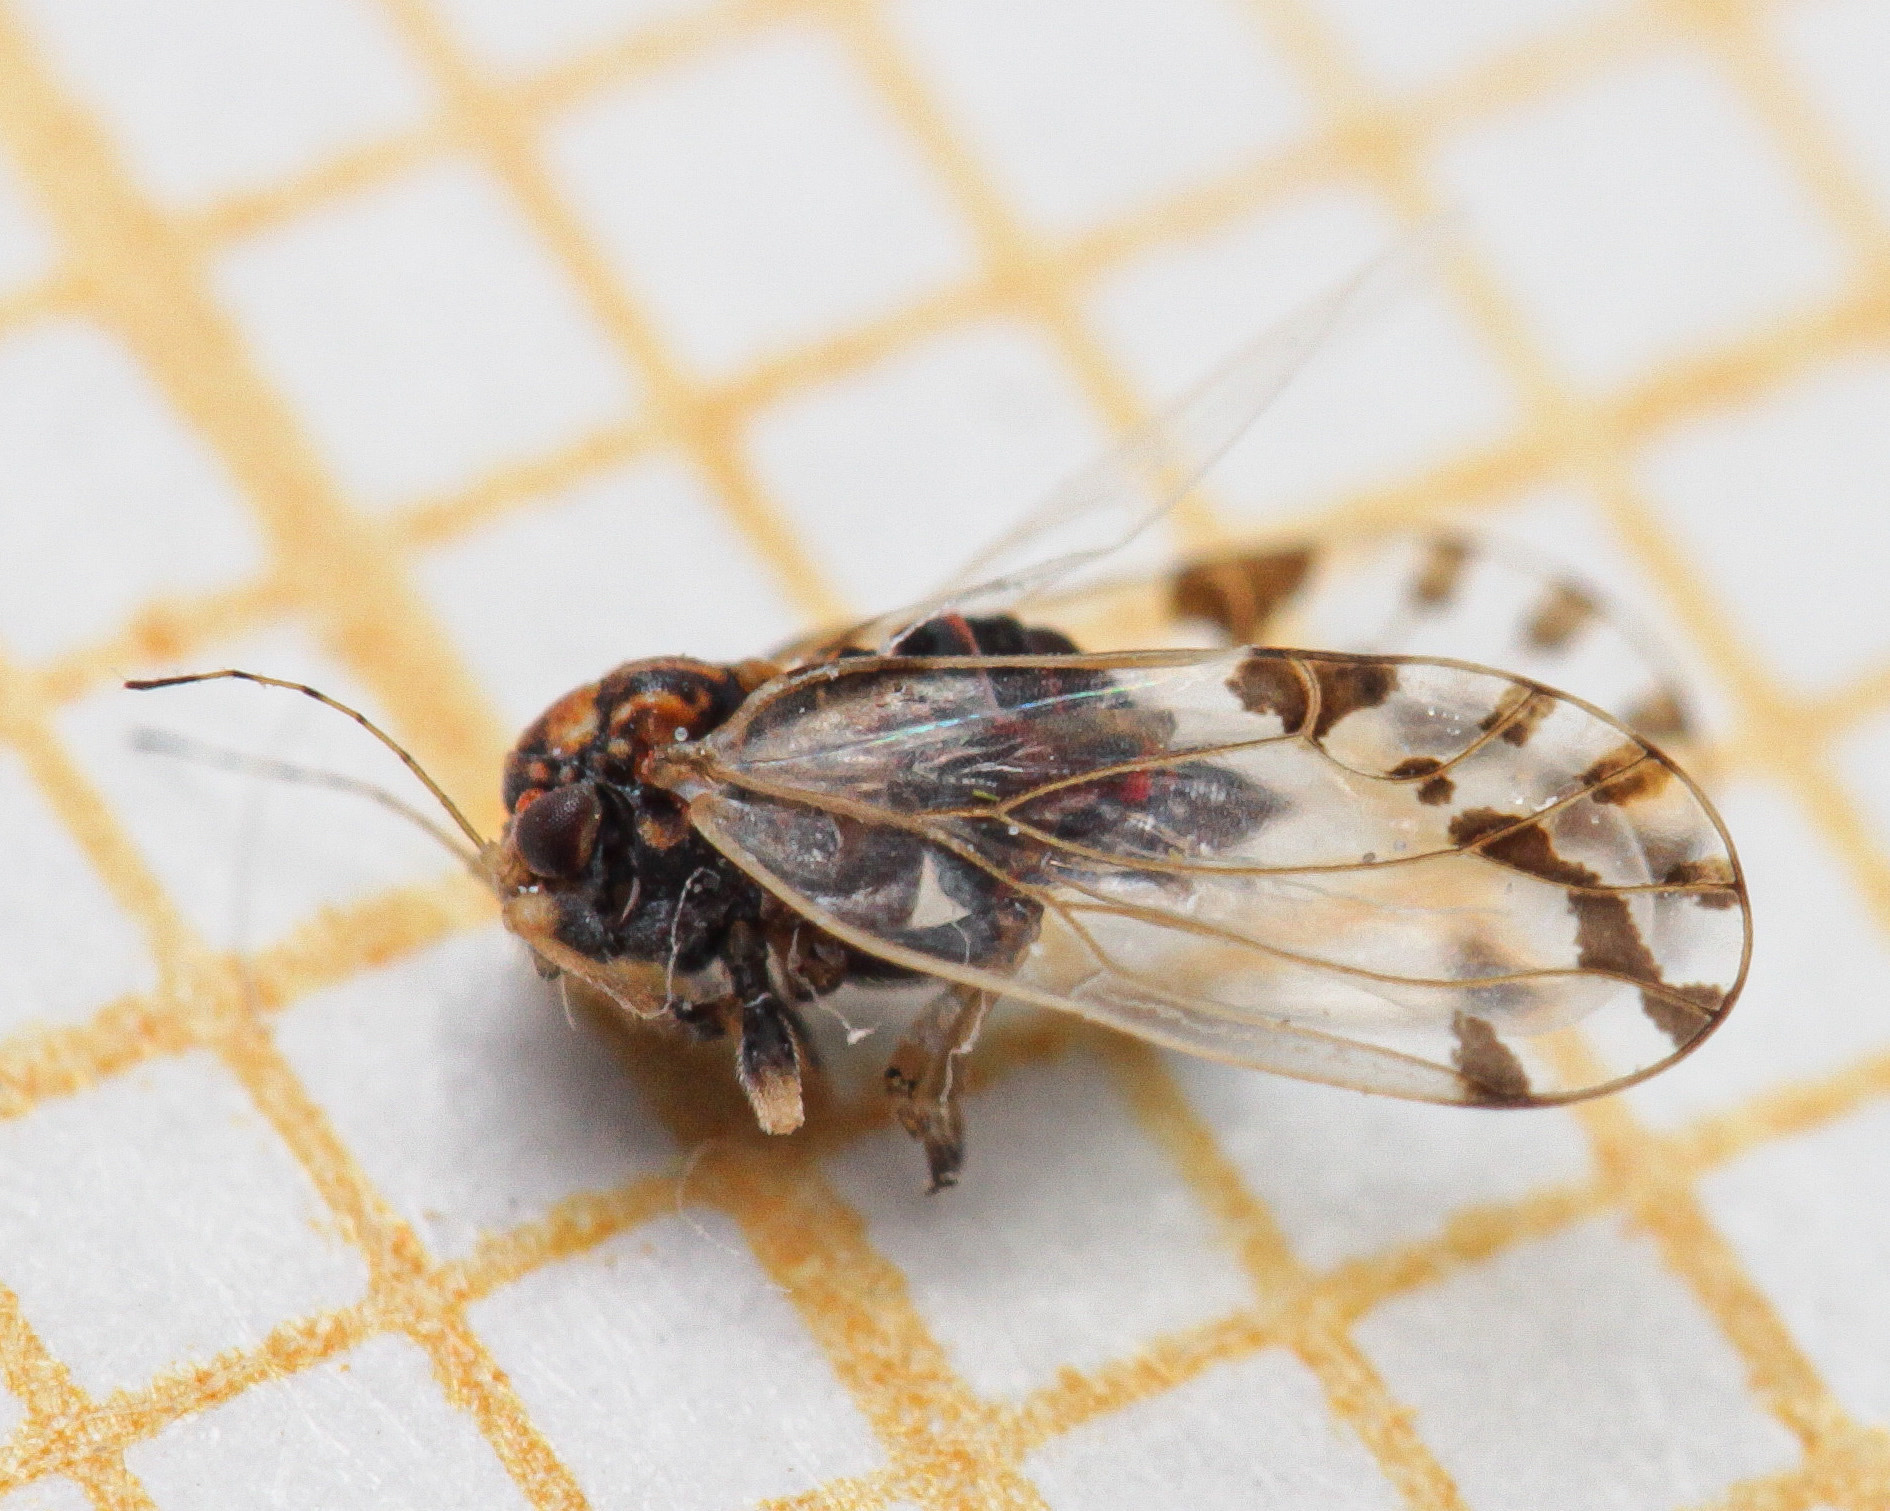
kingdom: Animalia
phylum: Arthropoda
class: Insecta
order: Hemiptera
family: Psyllidae
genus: Cacopsylla
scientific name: Cacopsylla pulchella
